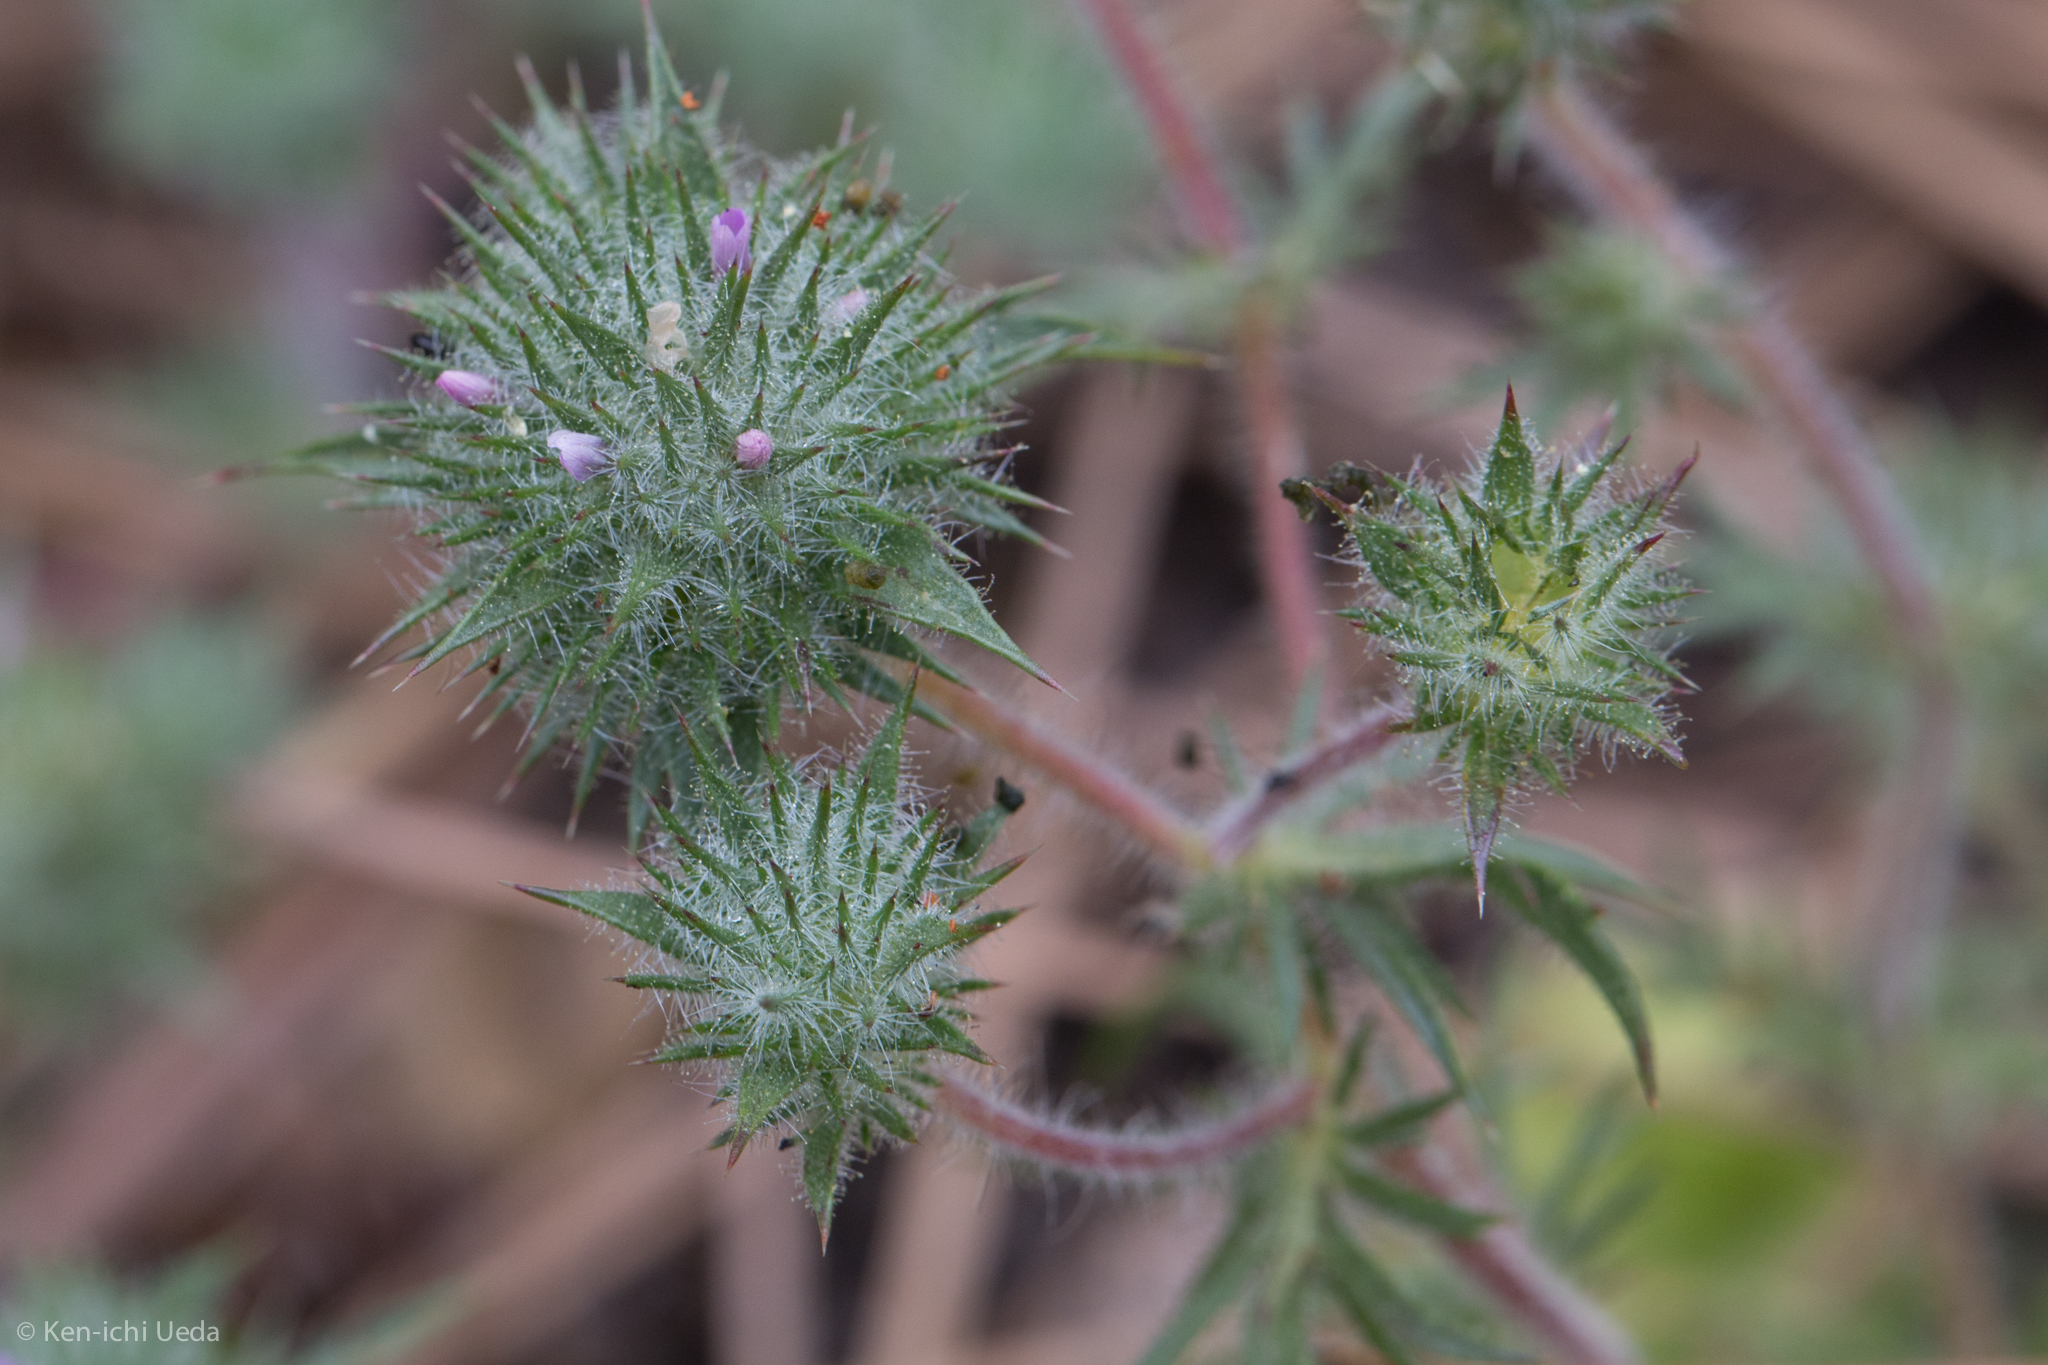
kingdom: Plantae
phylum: Tracheophyta
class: Magnoliopsida
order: Ericales
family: Polemoniaceae
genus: Navarretia
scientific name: Navarretia mellita
